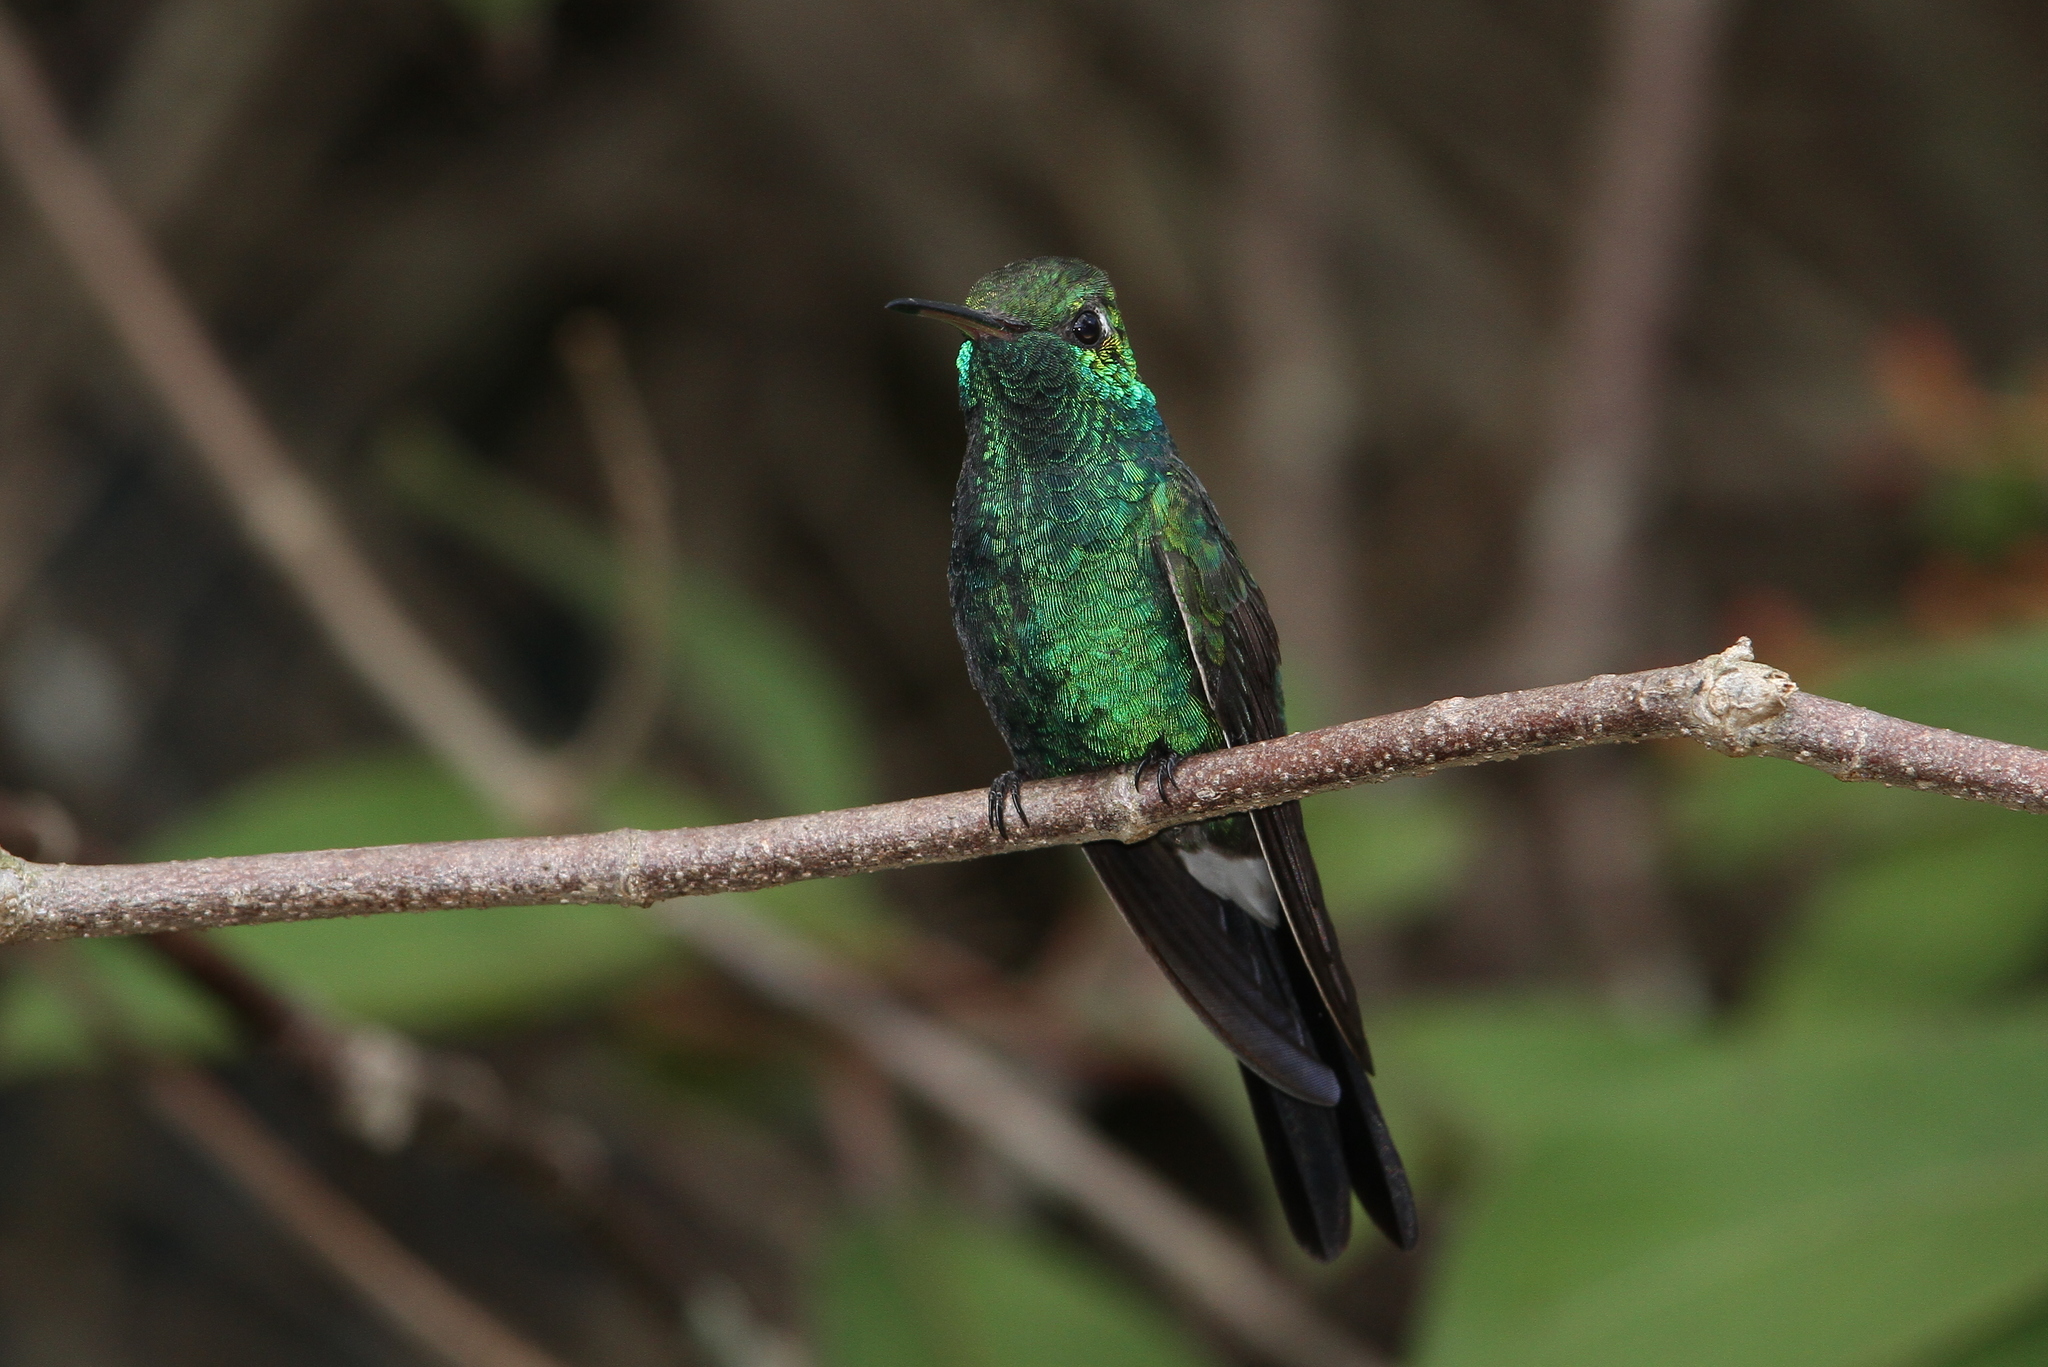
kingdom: Animalia
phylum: Chordata
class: Aves
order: Apodiformes
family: Trochilidae
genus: Riccordia
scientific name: Riccordia ricordii
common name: Cuban emerald
